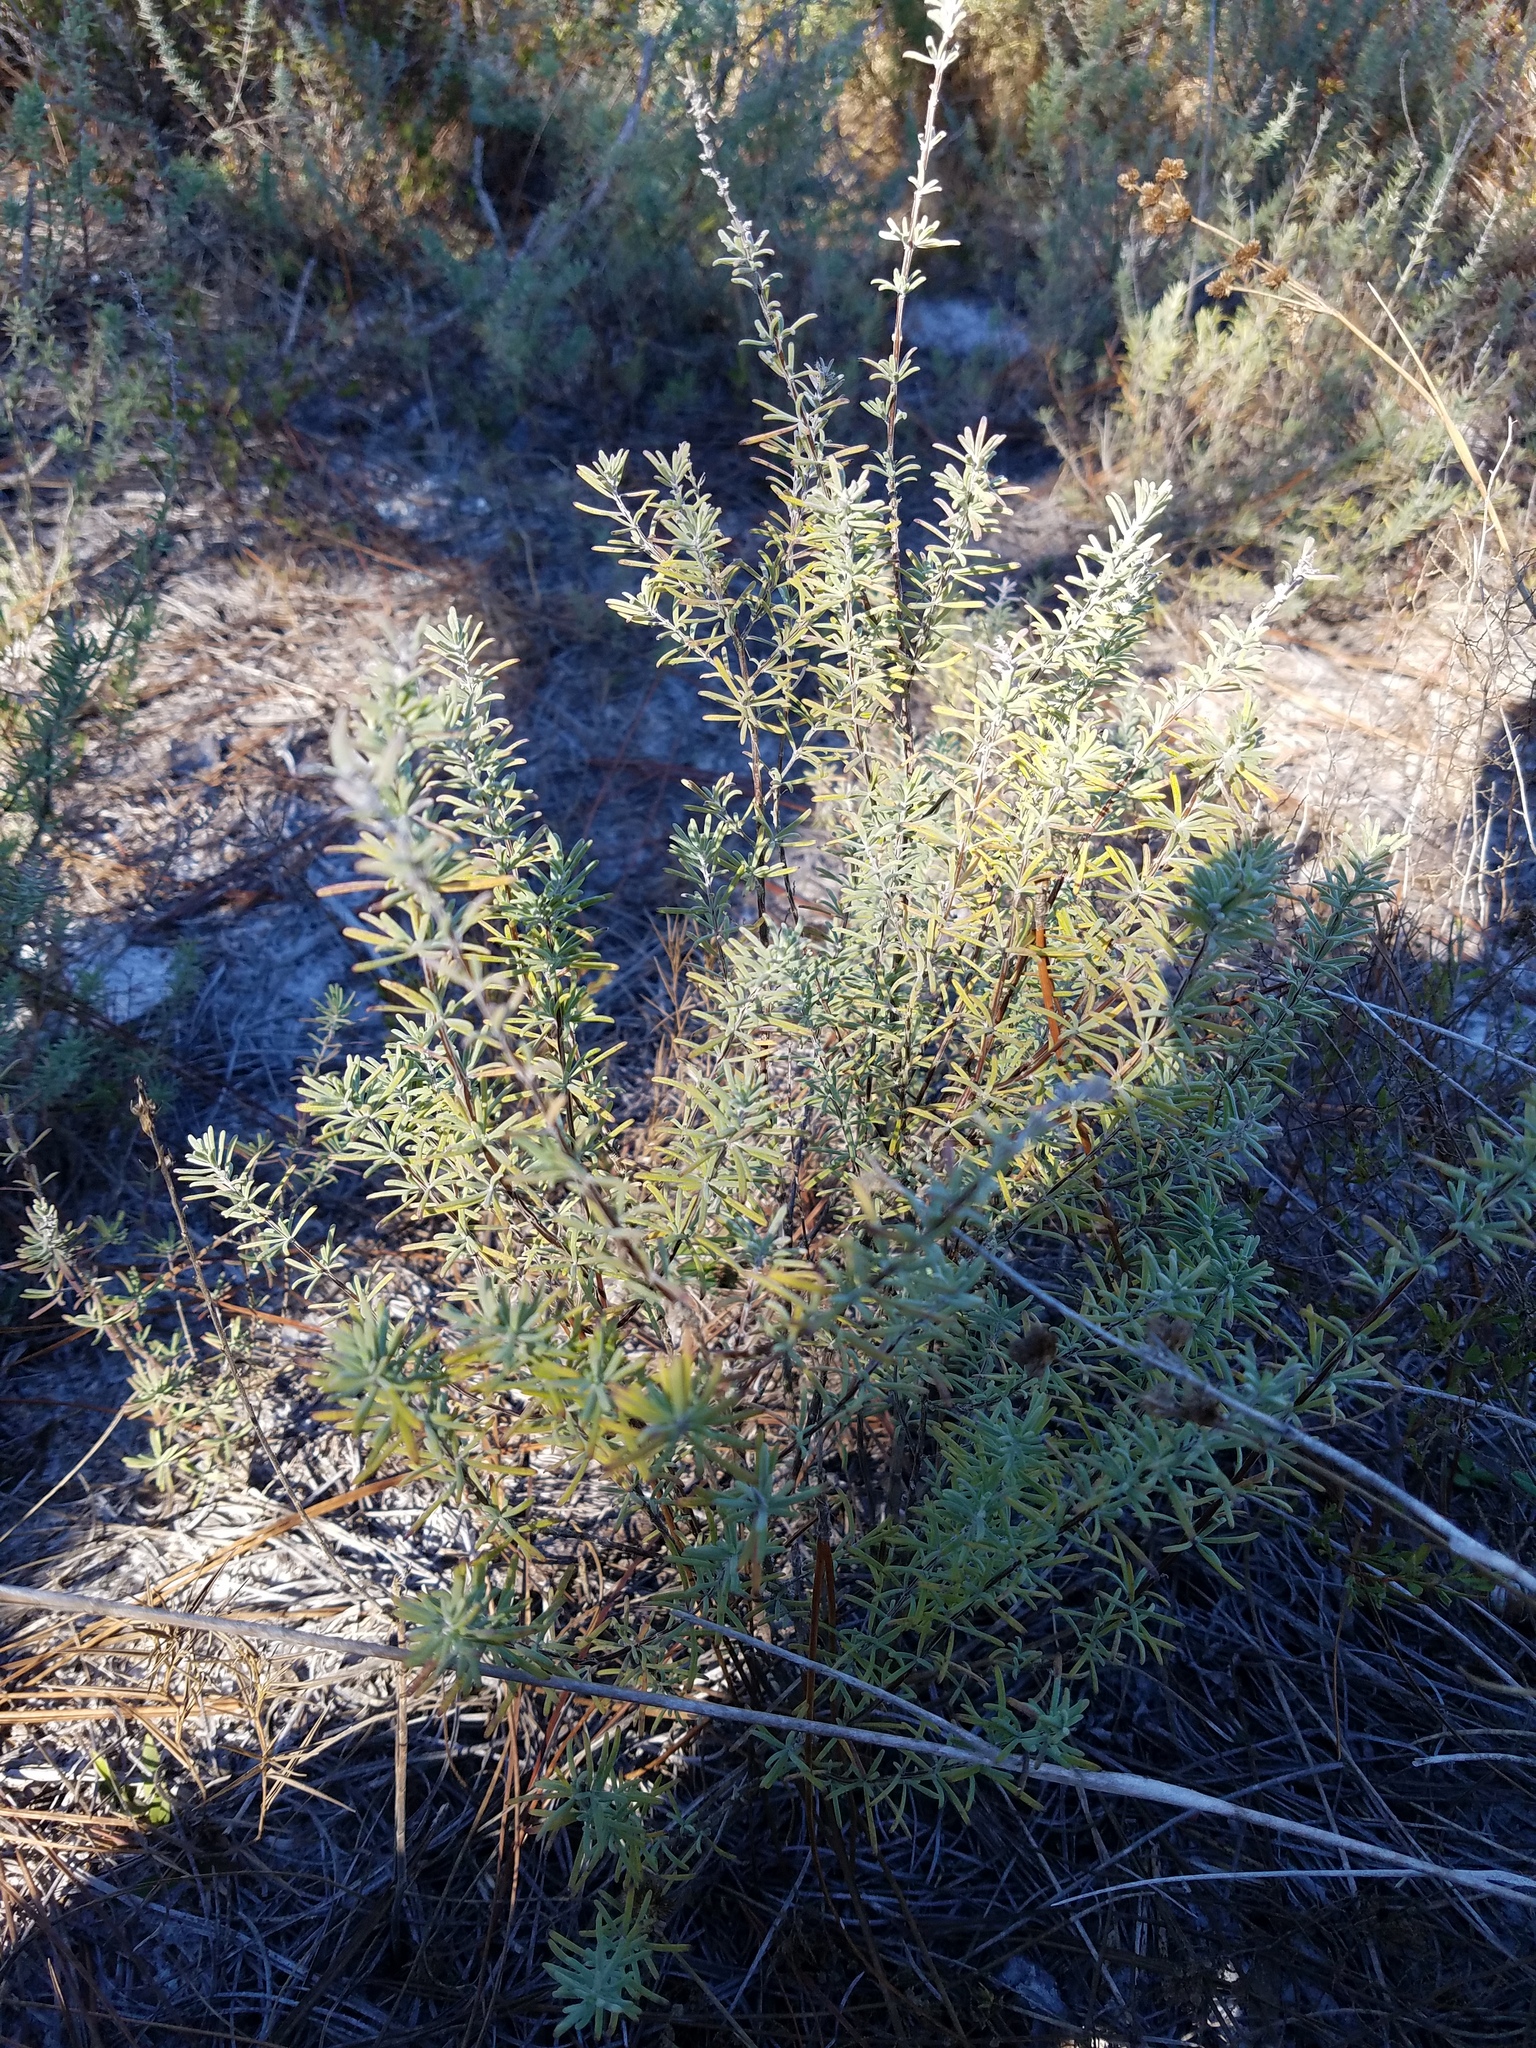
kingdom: Plantae
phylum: Tracheophyta
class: Magnoliopsida
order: Lamiales
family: Lamiaceae
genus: Conradina
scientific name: Conradina canescens
